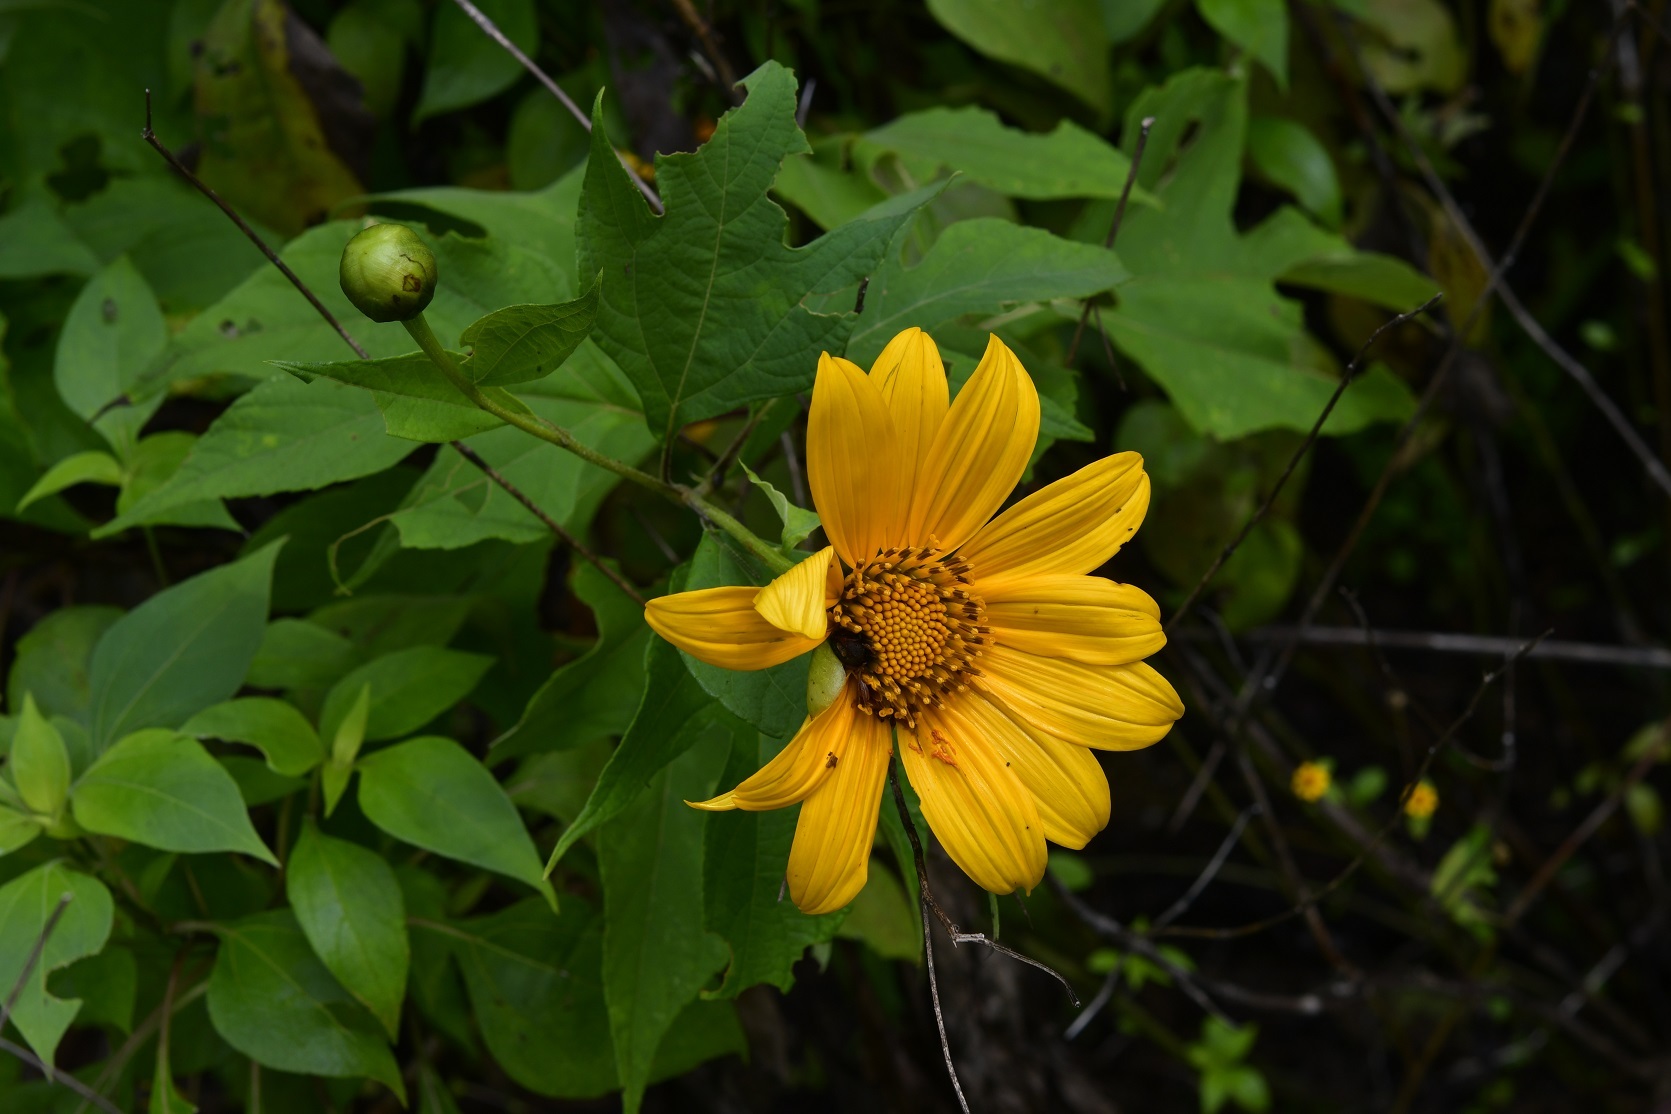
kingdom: Plantae
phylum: Tracheophyta
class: Magnoliopsida
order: Asterales
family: Asteraceae
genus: Tithonia
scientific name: Tithonia diversifolia
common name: Tree marigold
